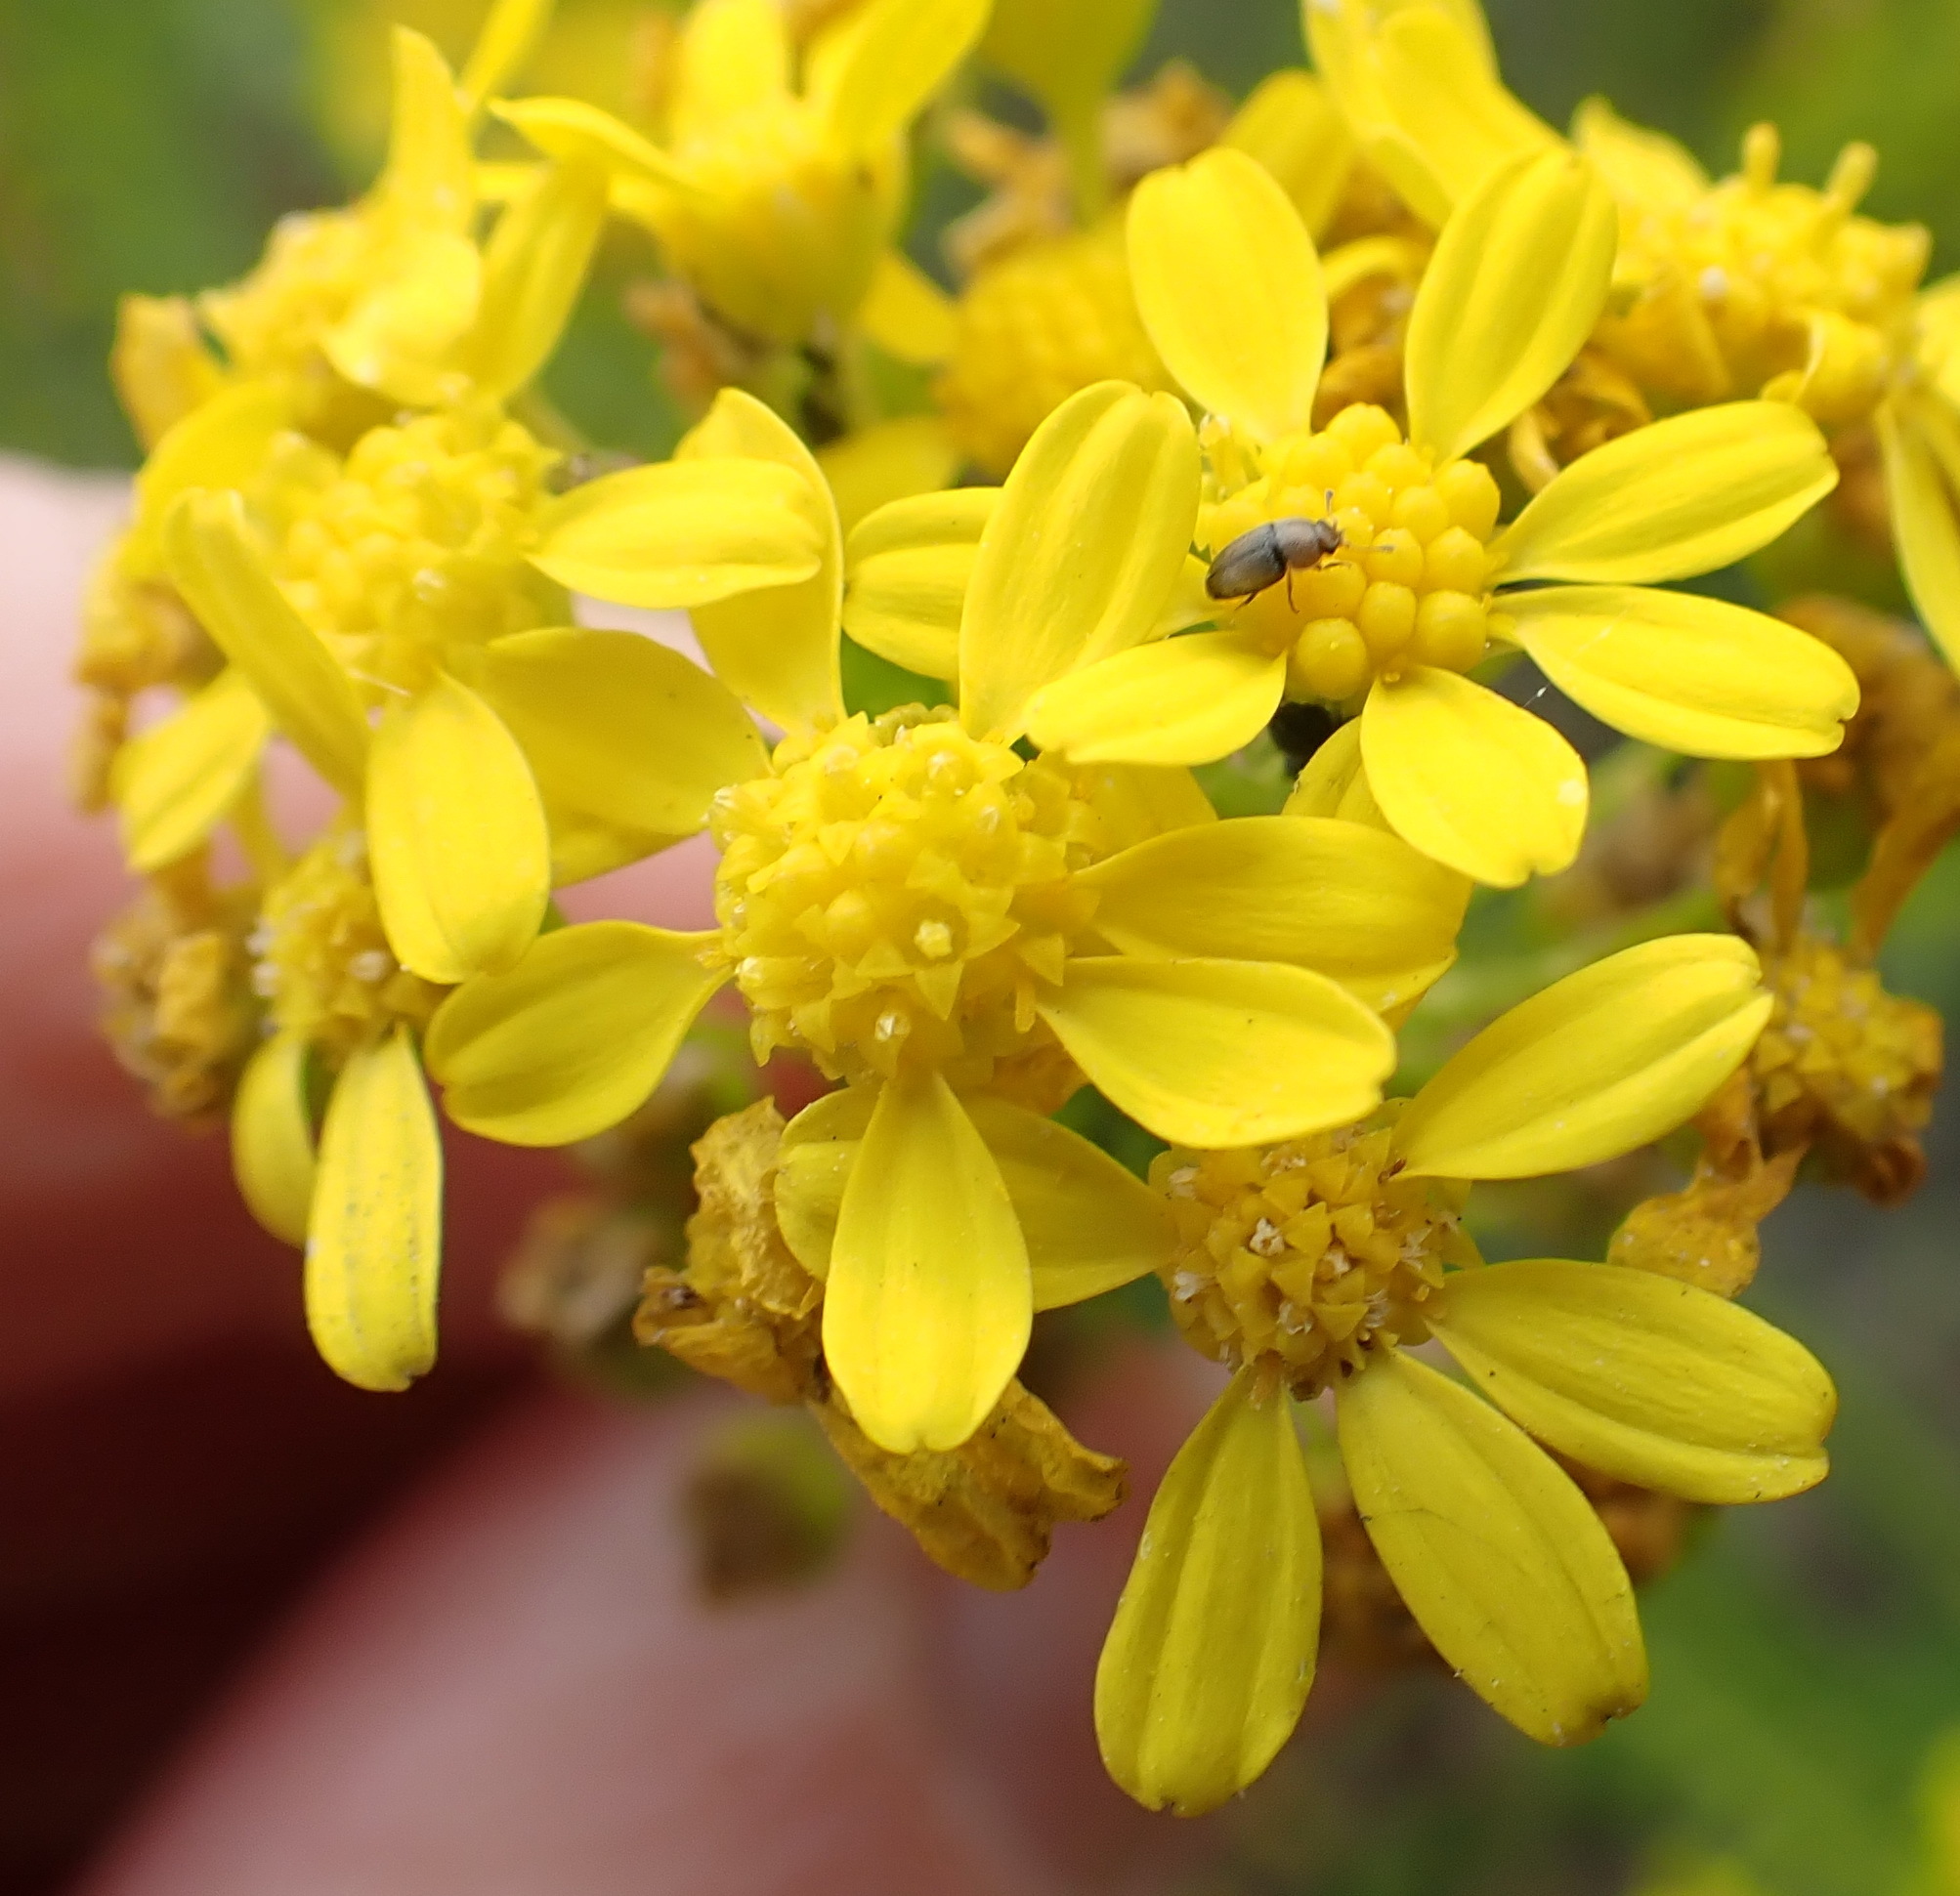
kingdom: Plantae
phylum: Tracheophyta
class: Magnoliopsida
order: Asterales
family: Asteraceae
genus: Euryops
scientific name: Euryops virgineus
